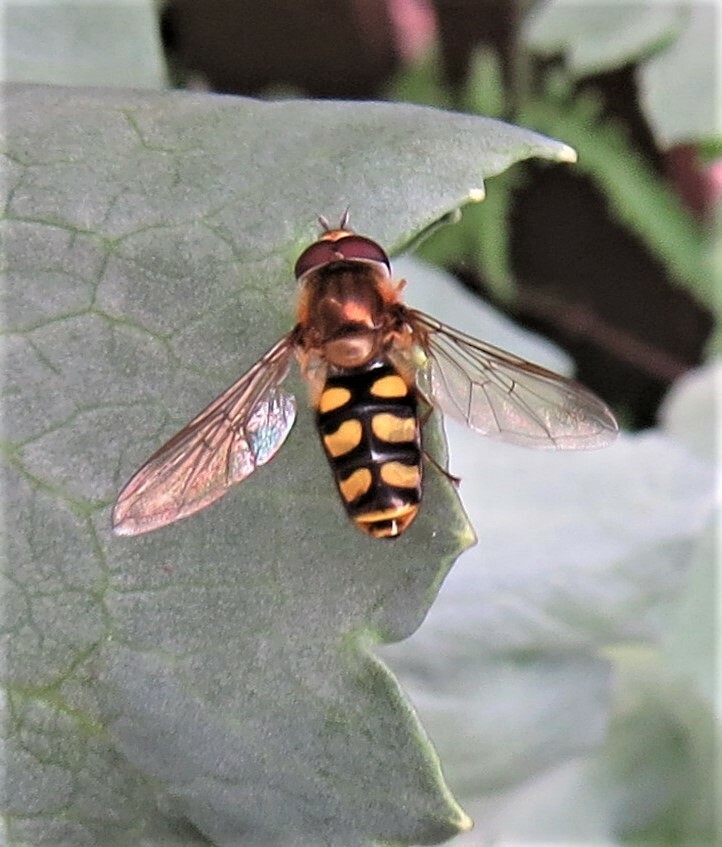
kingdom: Animalia
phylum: Arthropoda
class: Insecta
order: Diptera
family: Syrphidae
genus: Eupeodes
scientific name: Eupeodes
